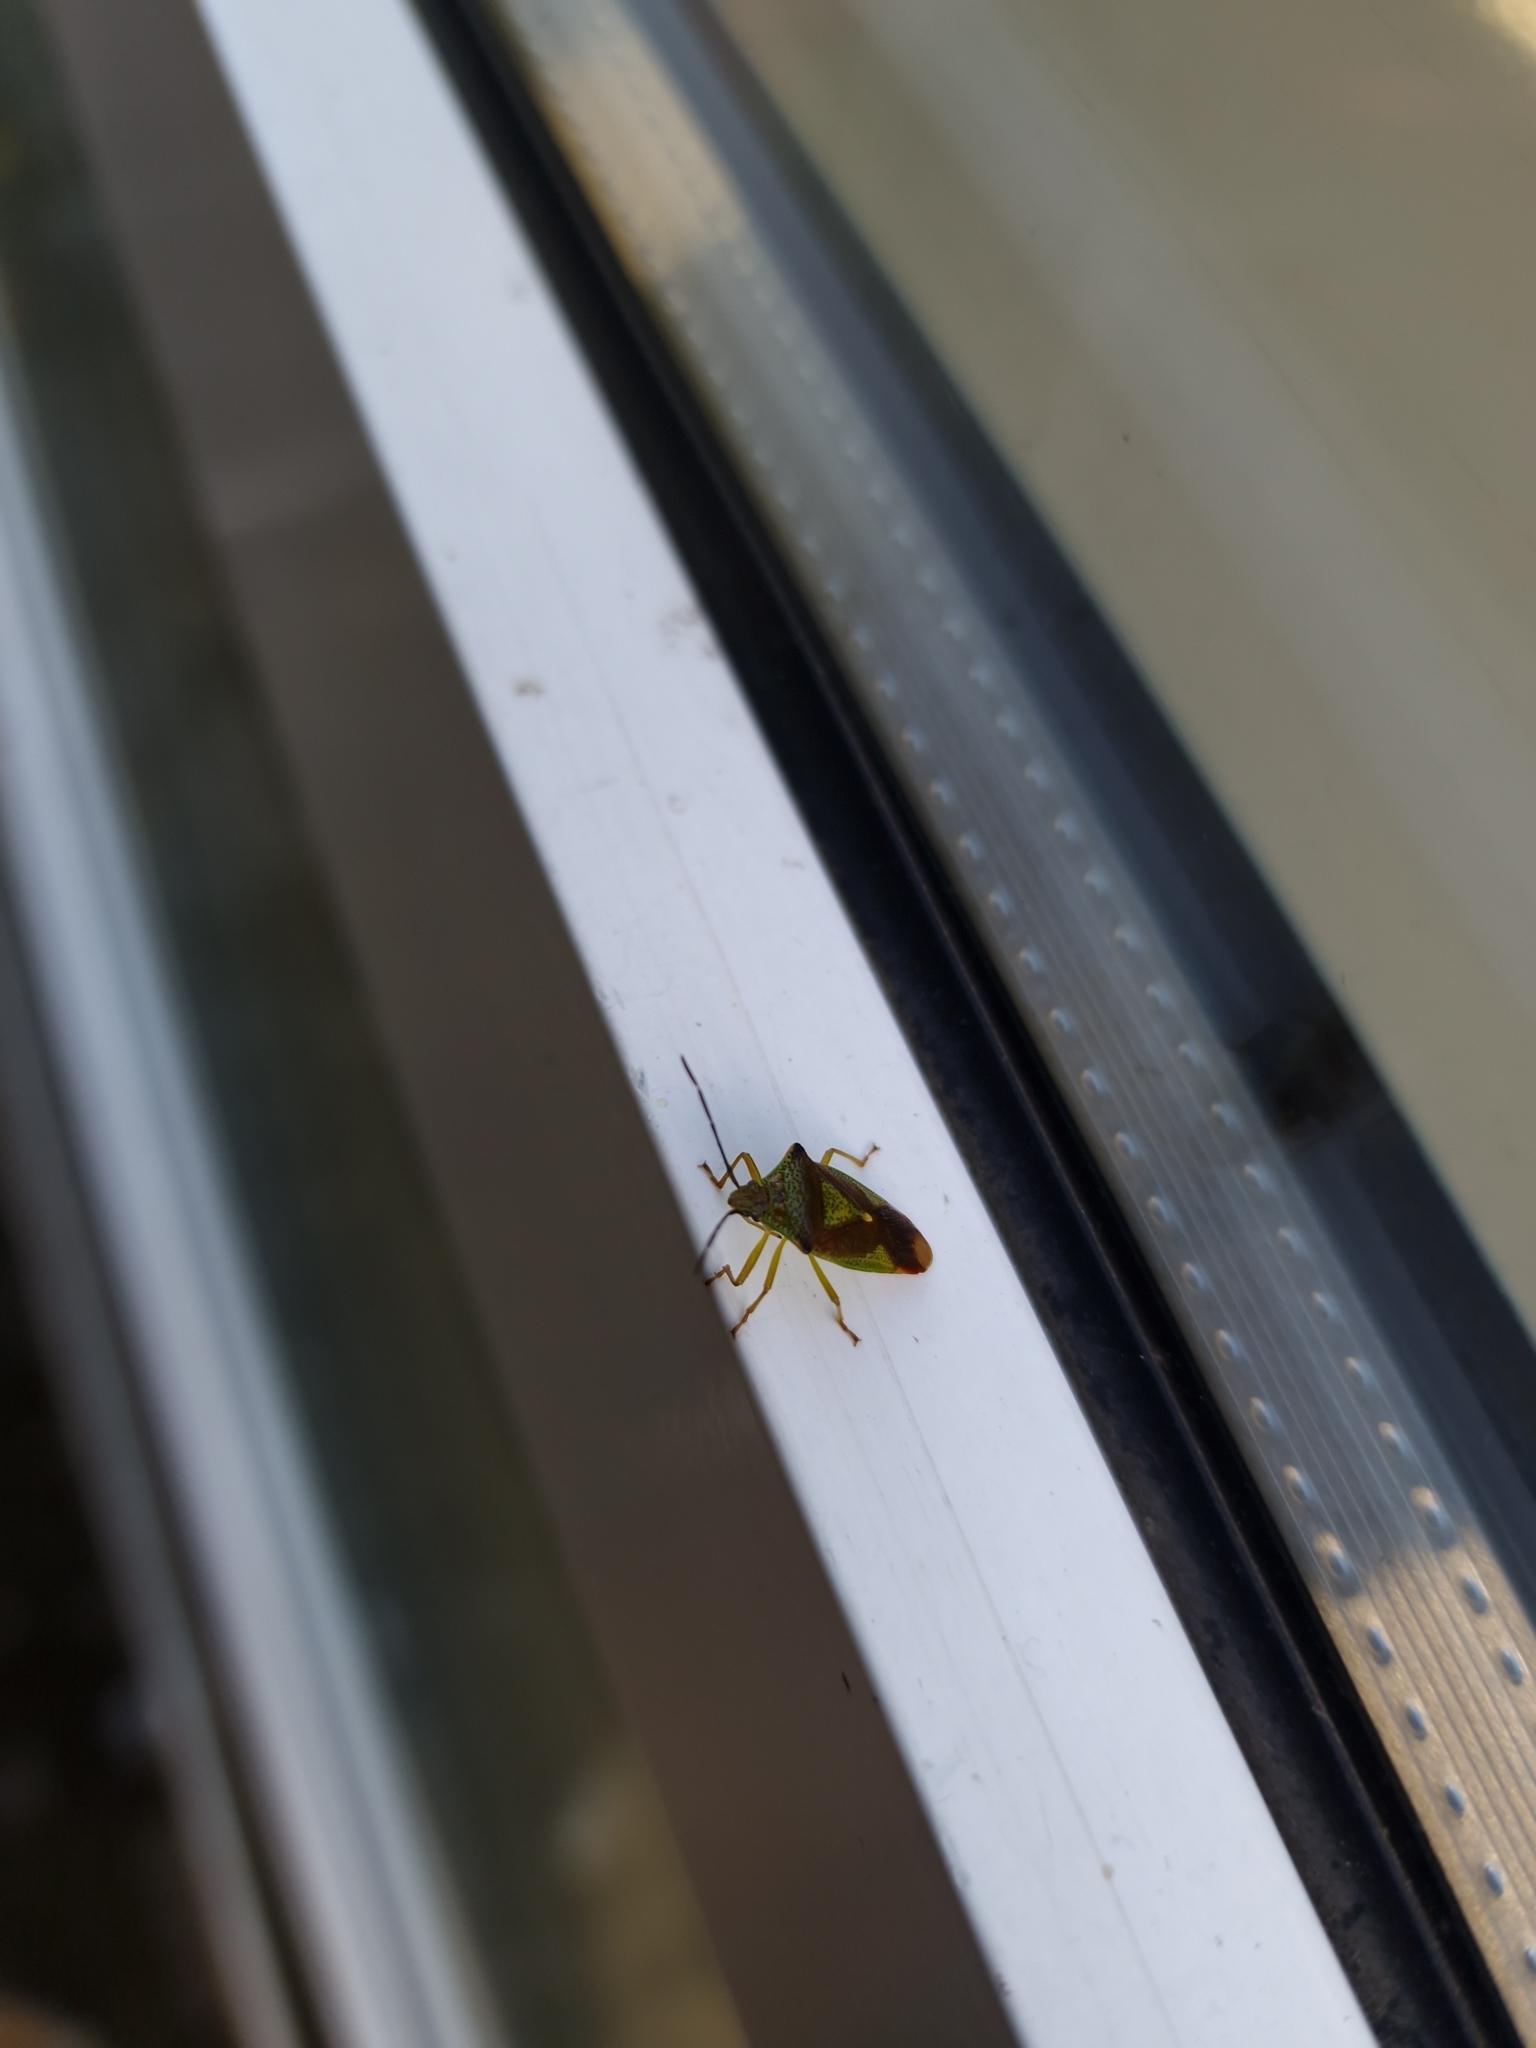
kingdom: Animalia
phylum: Arthropoda
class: Insecta
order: Hemiptera
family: Acanthosomatidae
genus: Acanthosoma
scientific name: Acanthosoma haemorrhoidale
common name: Hawthorn shieldbug
